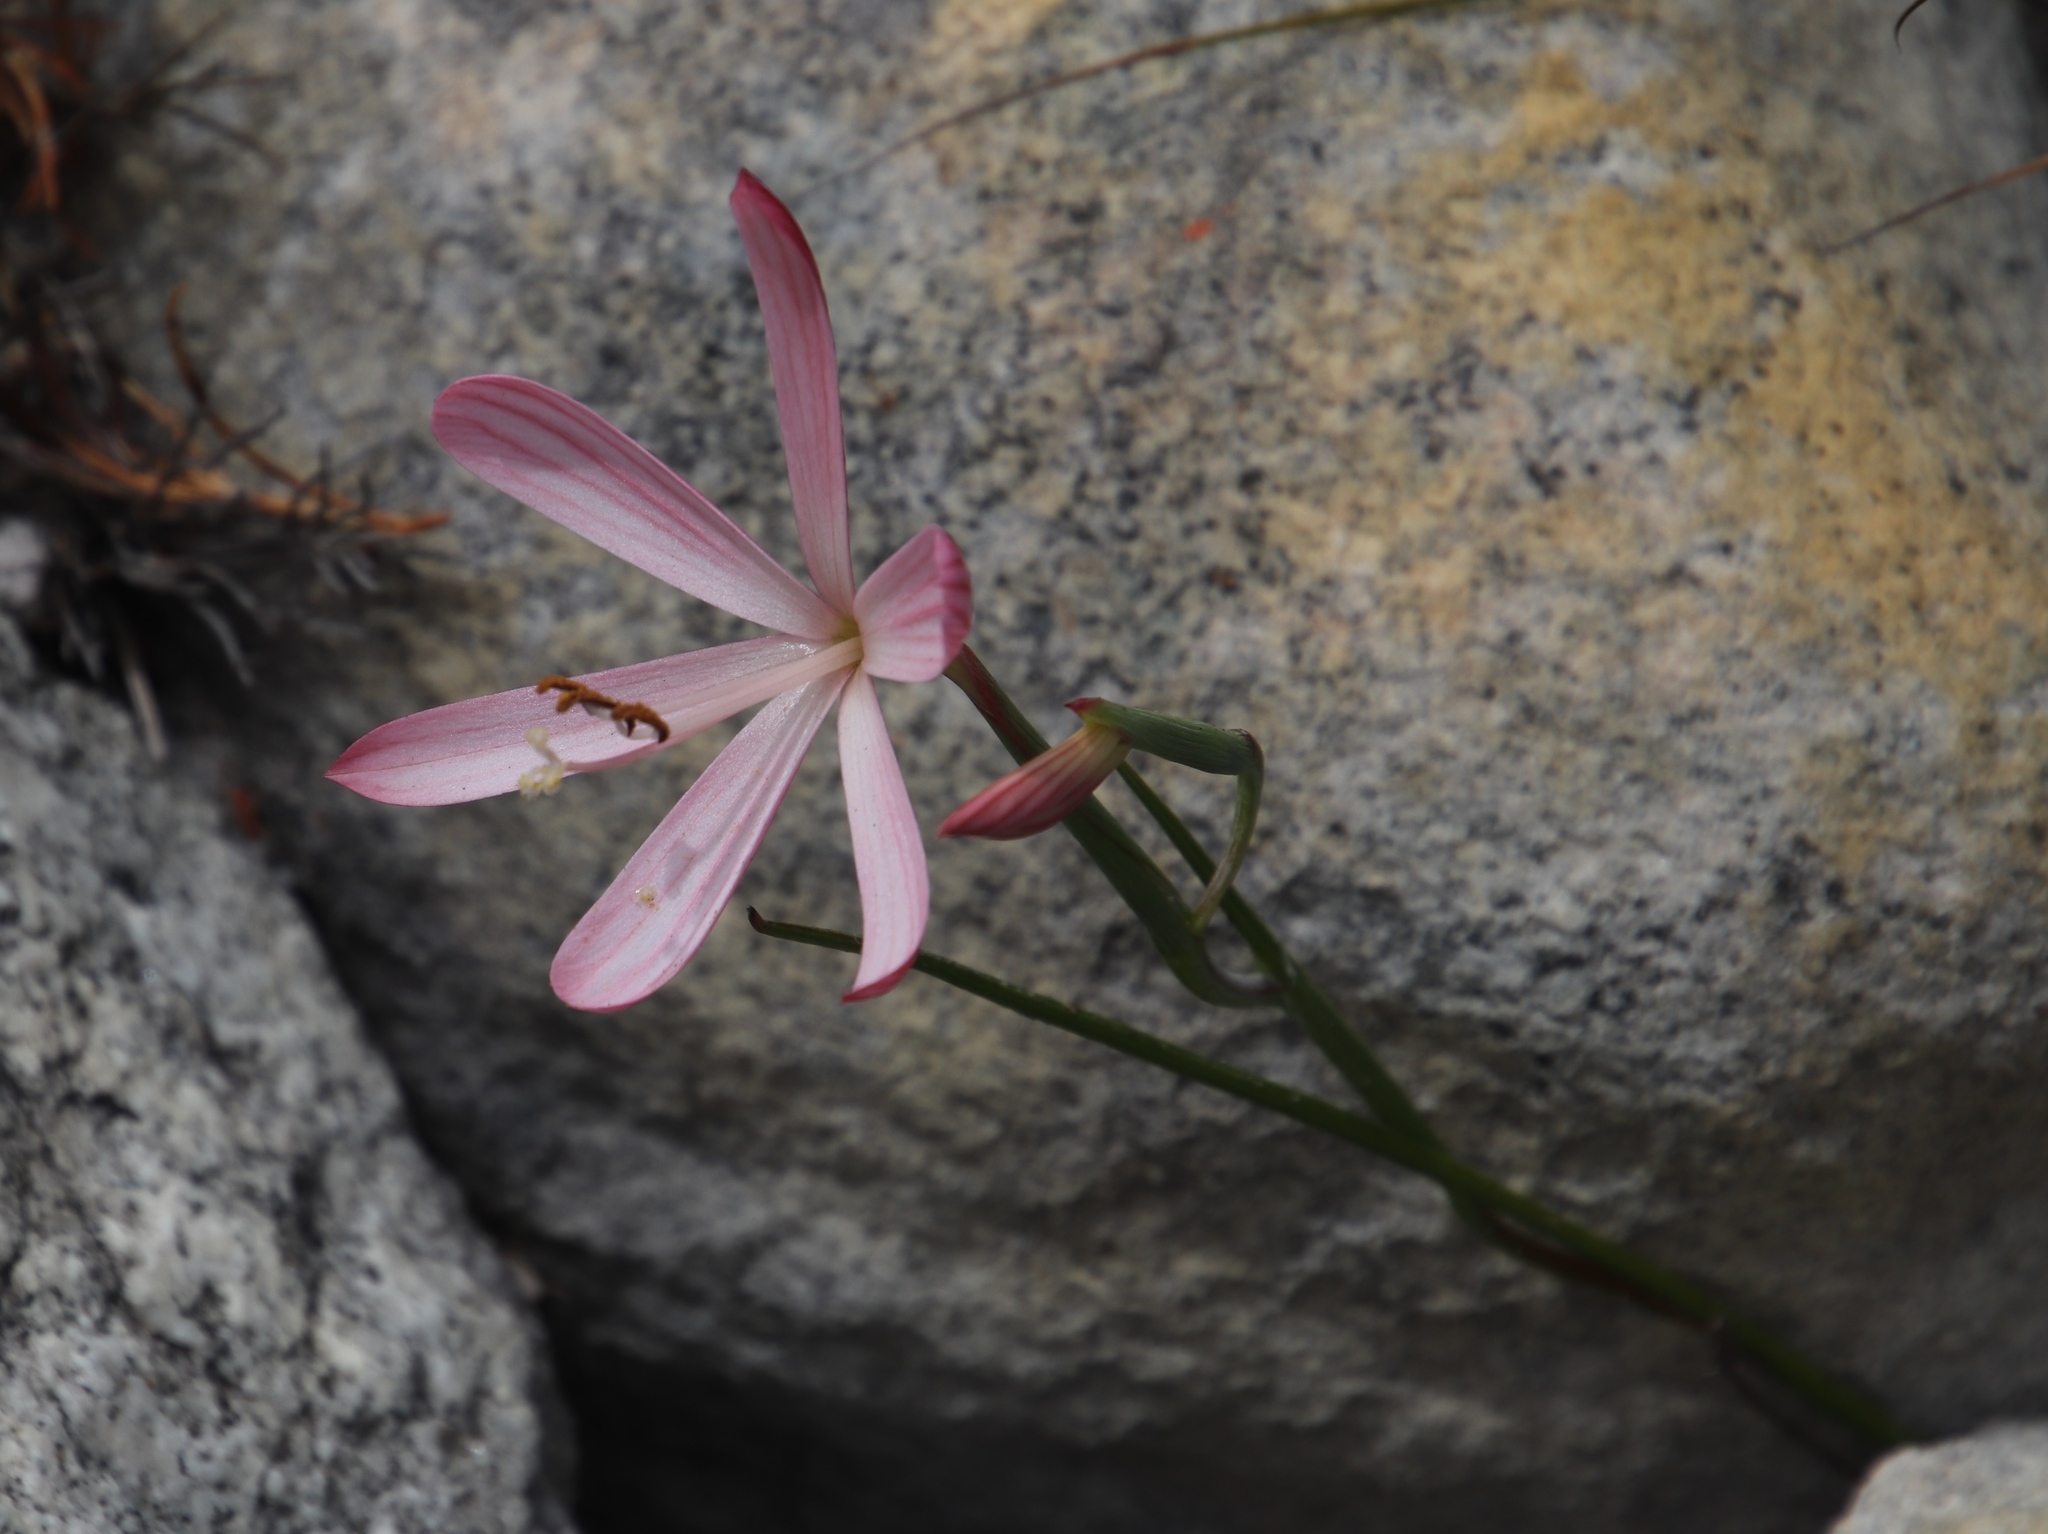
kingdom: Plantae
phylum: Tracheophyta
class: Liliopsida
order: Asparagales
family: Iridaceae
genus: Geissorhiza
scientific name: Geissorhiza bonae-spei
